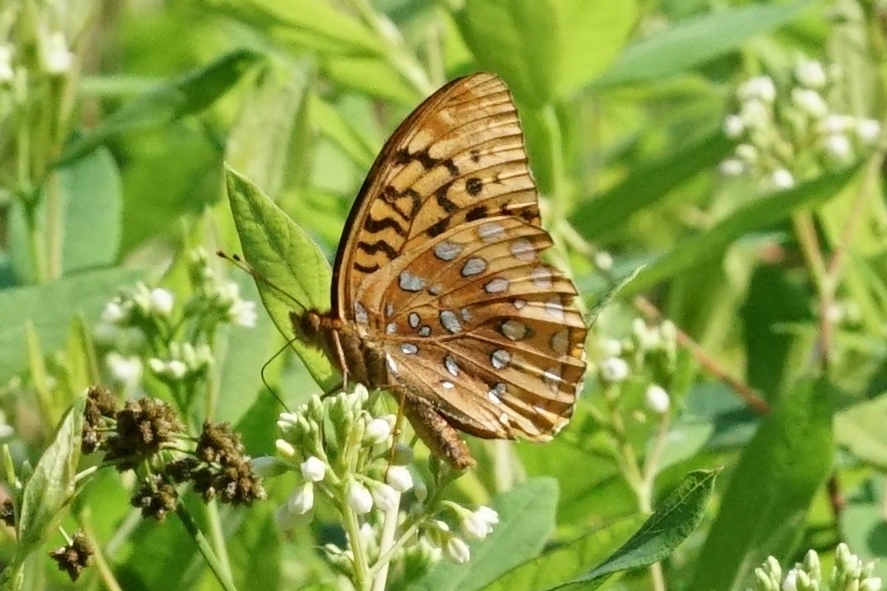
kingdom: Animalia
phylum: Arthropoda
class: Insecta
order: Lepidoptera
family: Nymphalidae
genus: Speyeria
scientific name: Speyeria cybele
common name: Great spangled fritillary
